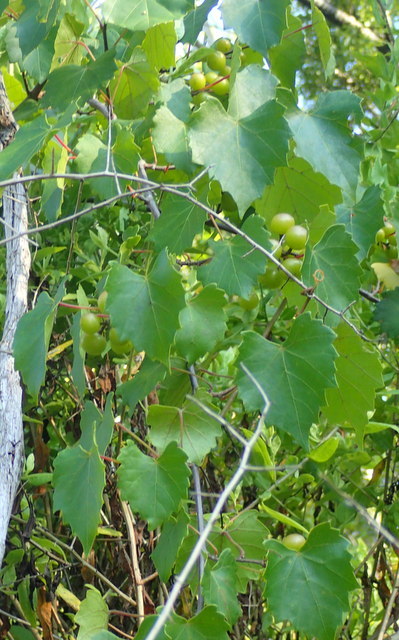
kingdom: Plantae
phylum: Tracheophyta
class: Magnoliopsida
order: Vitales
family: Vitaceae
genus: Vitis
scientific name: Vitis rotundifolia
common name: Muscadine grape
